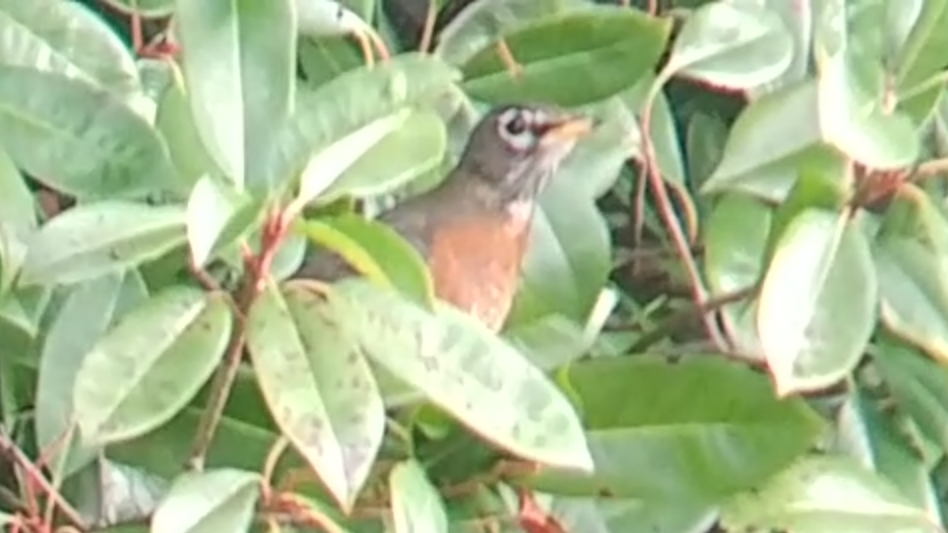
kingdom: Animalia
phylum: Chordata
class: Aves
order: Passeriformes
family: Turdidae
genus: Turdus
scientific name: Turdus migratorius
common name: American robin
